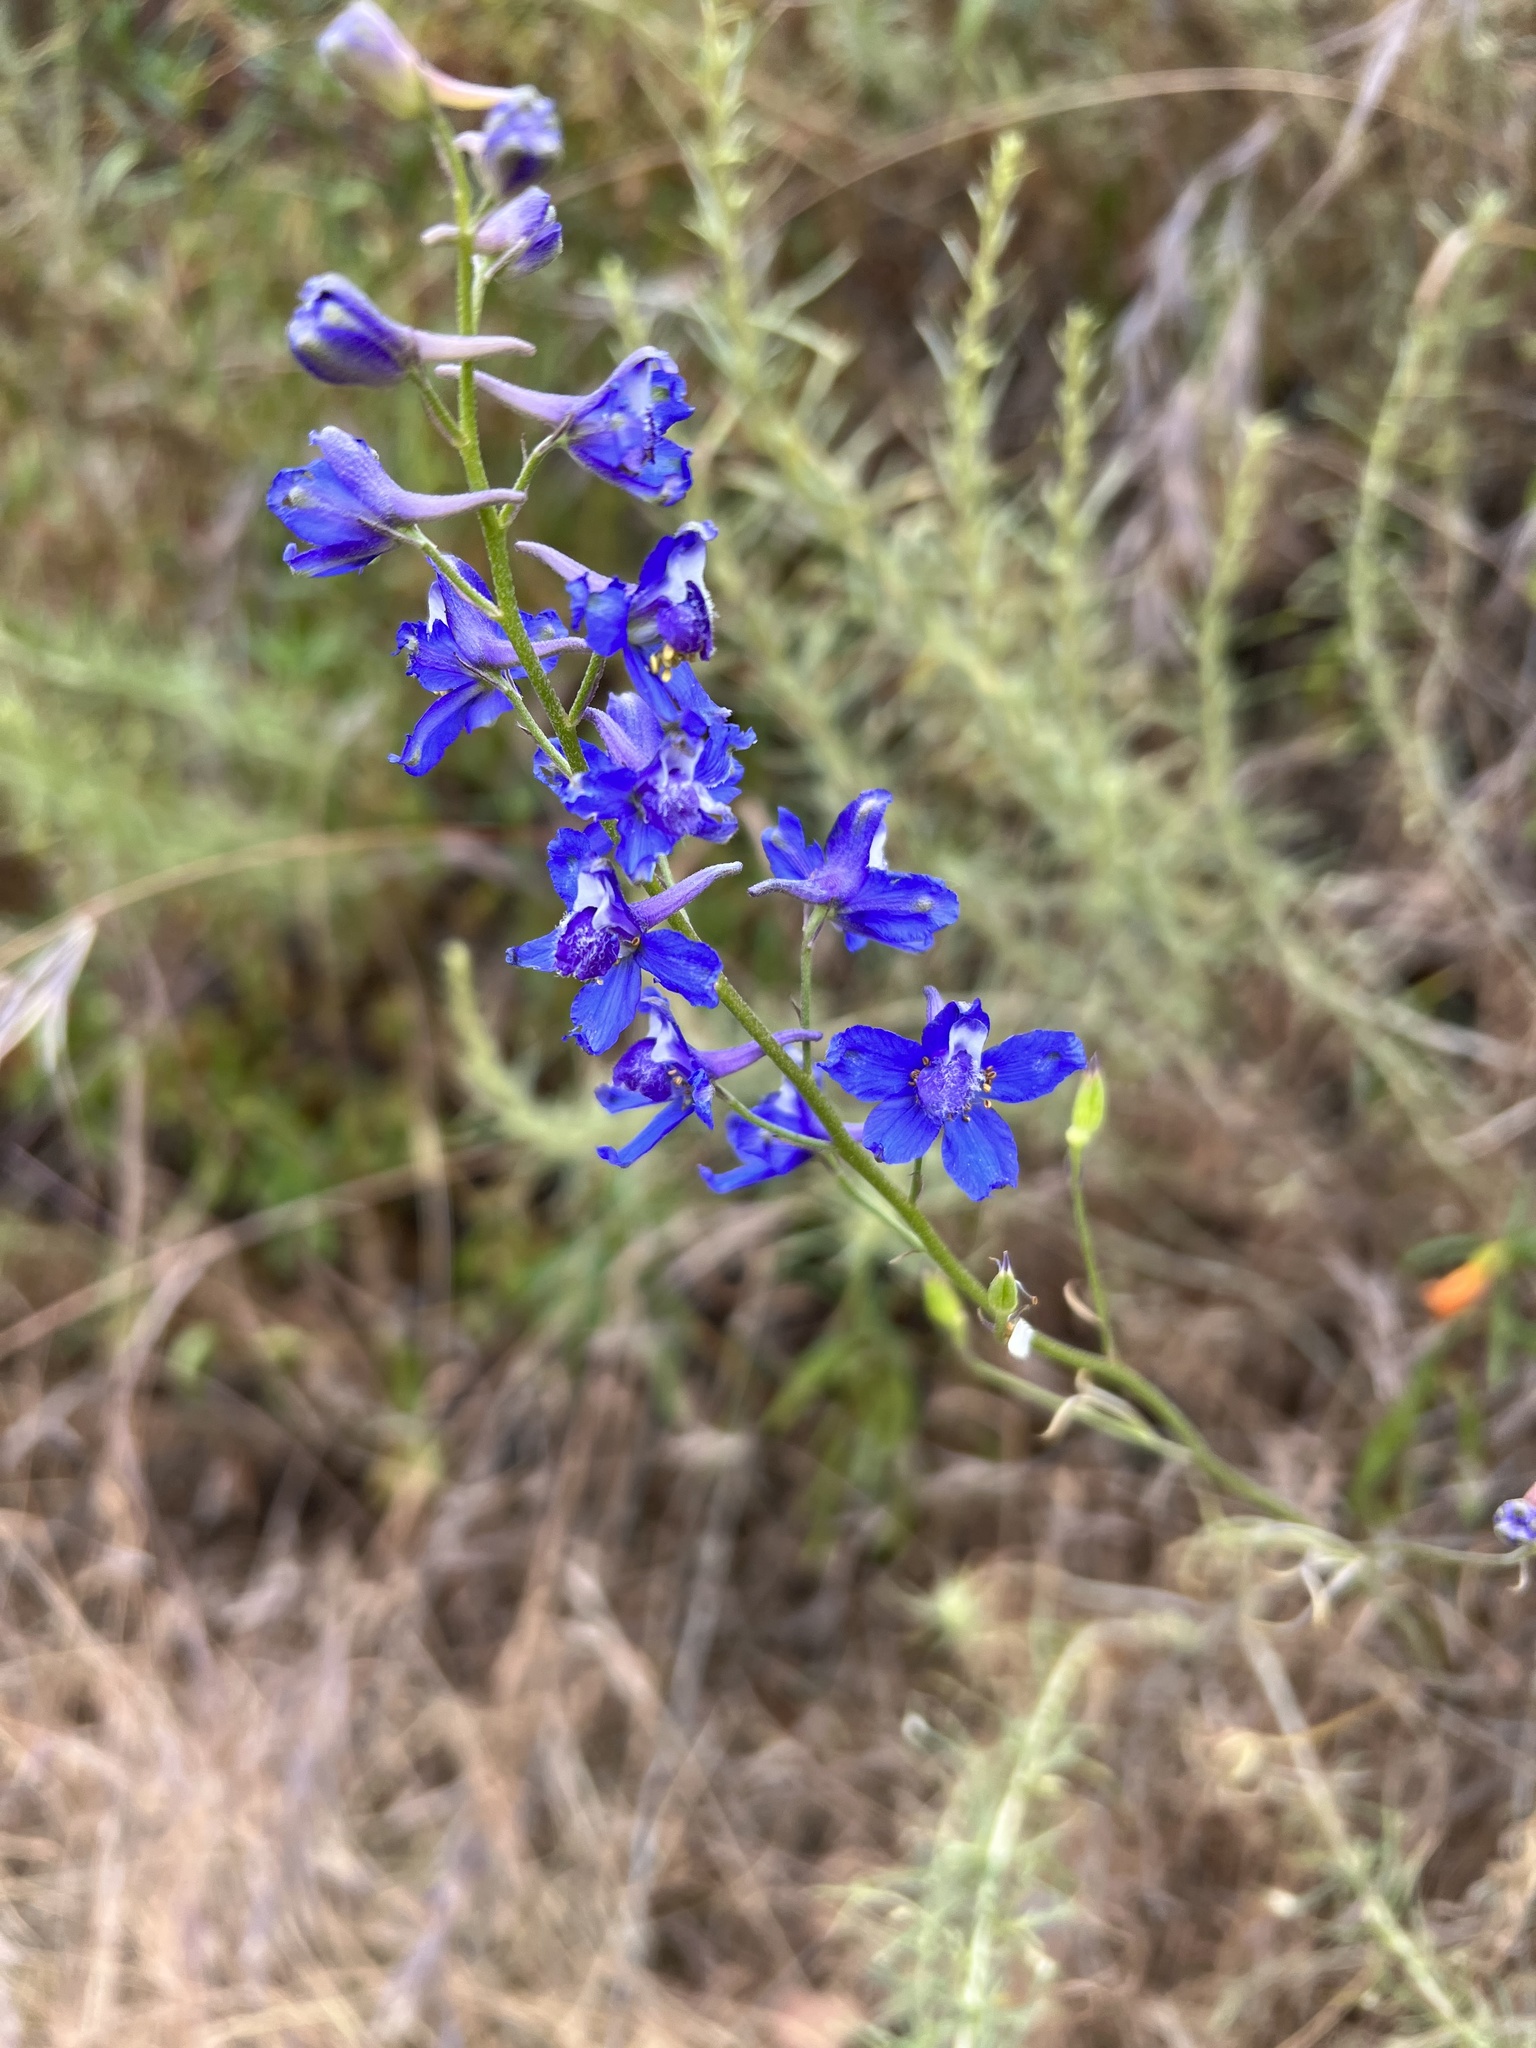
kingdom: Plantae
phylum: Tracheophyta
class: Magnoliopsida
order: Ranunculales
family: Ranunculaceae
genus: Delphinium
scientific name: Delphinium parryi
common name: Parry's larkspur
